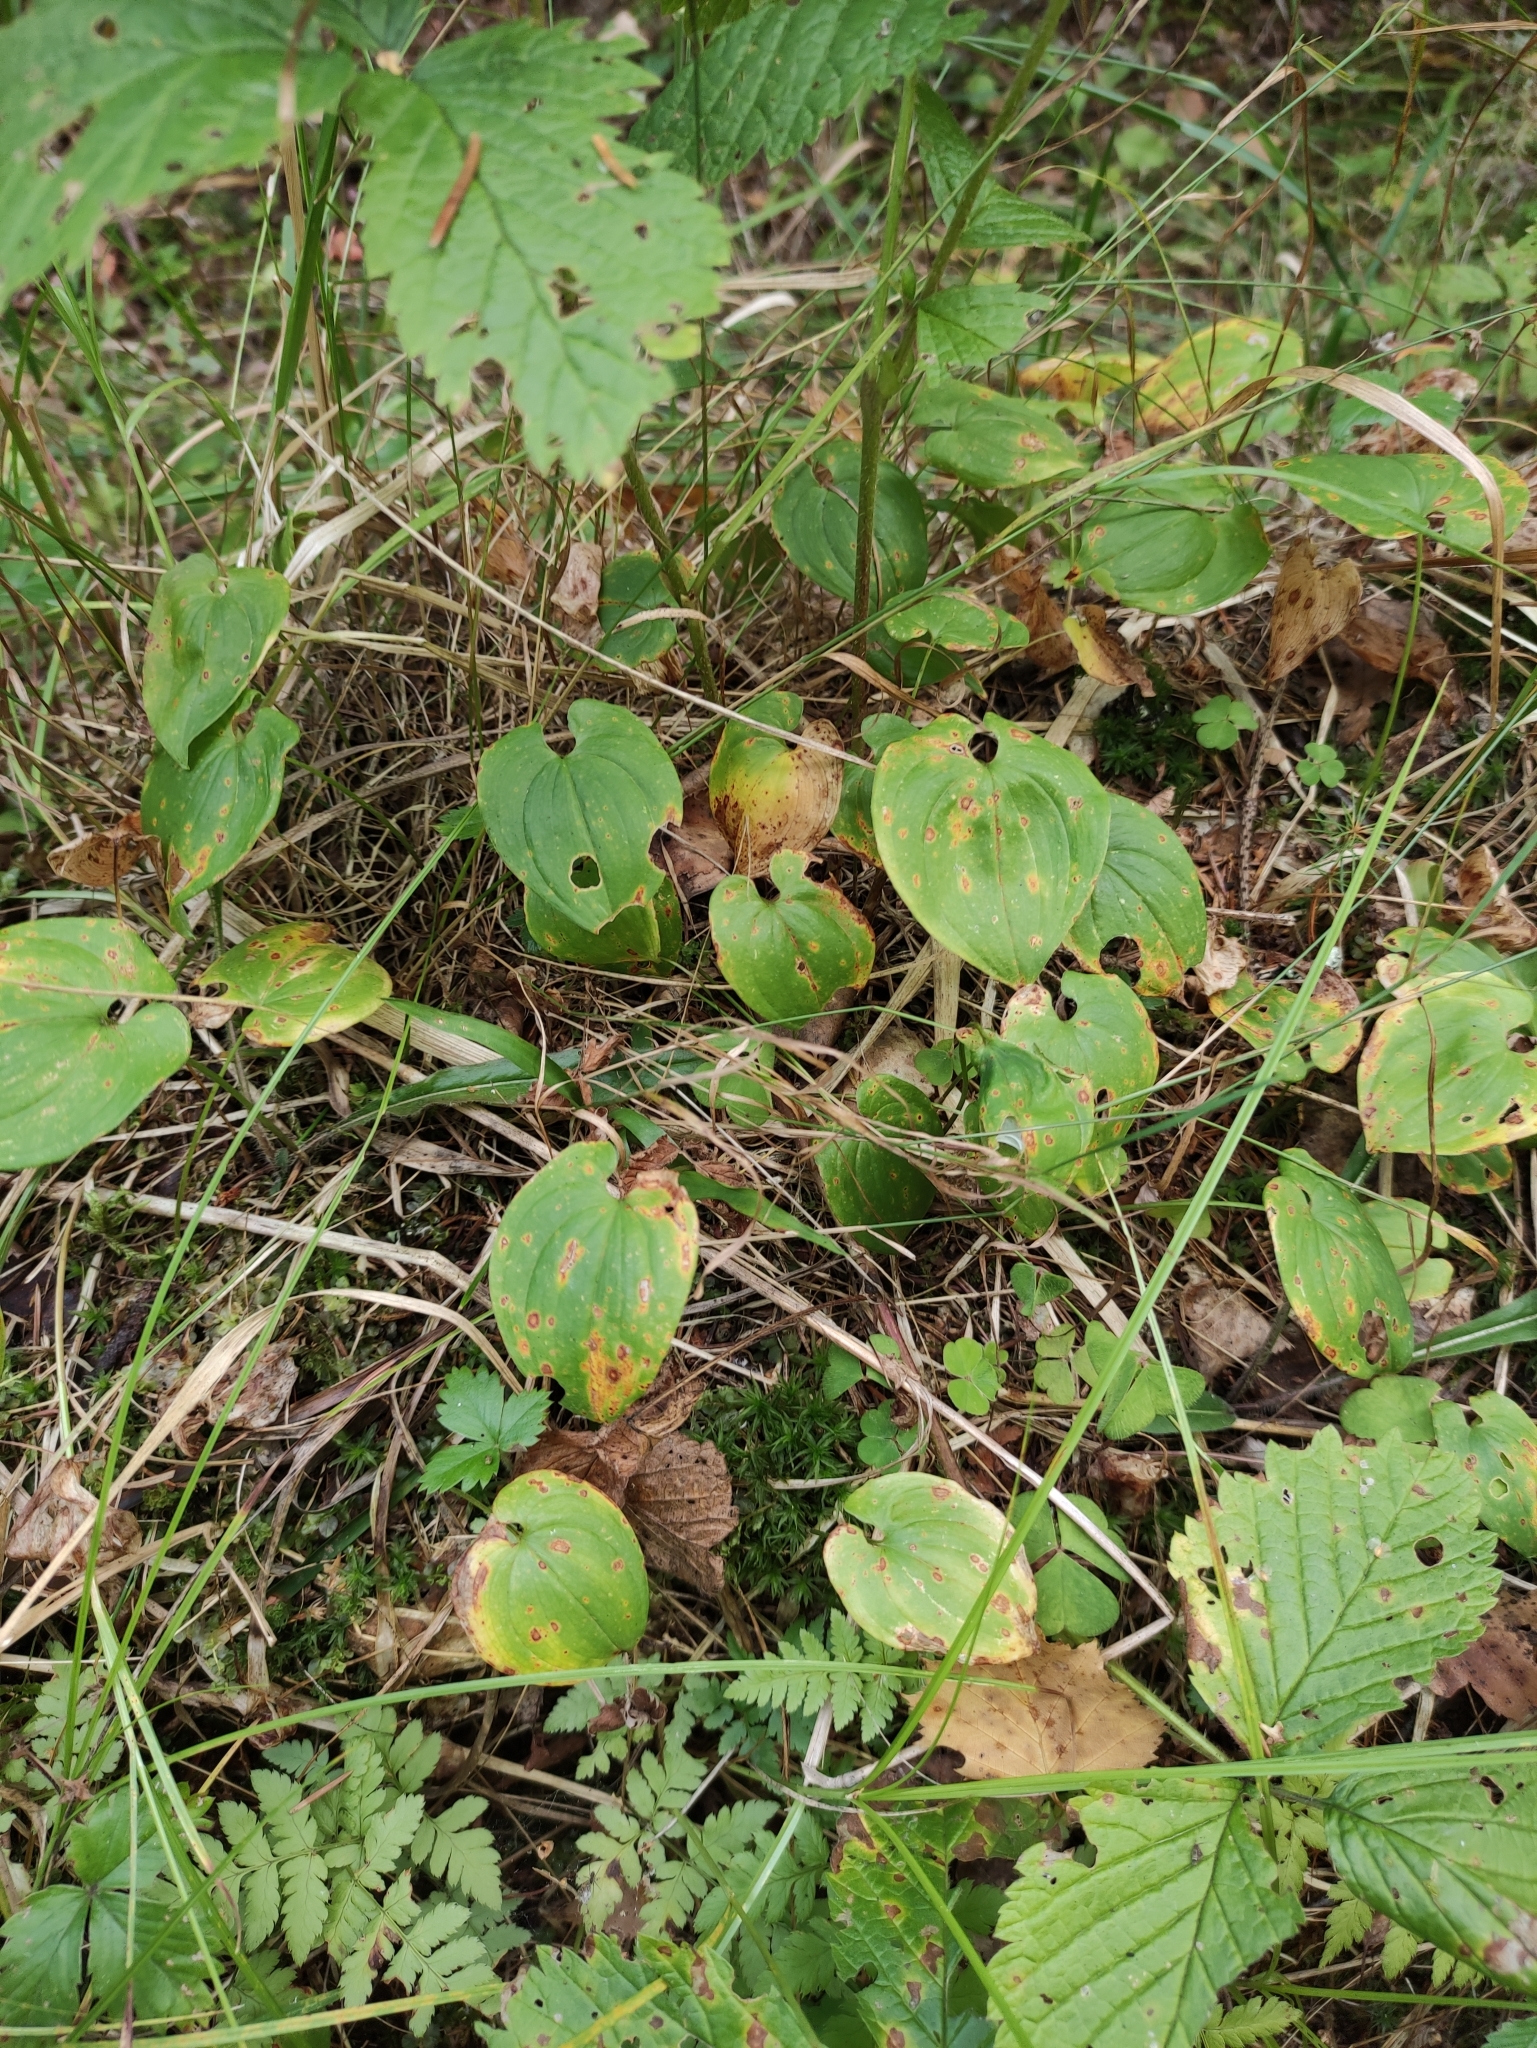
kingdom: Plantae
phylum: Tracheophyta
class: Liliopsida
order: Asparagales
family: Asparagaceae
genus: Maianthemum
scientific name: Maianthemum bifolium
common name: May lily
